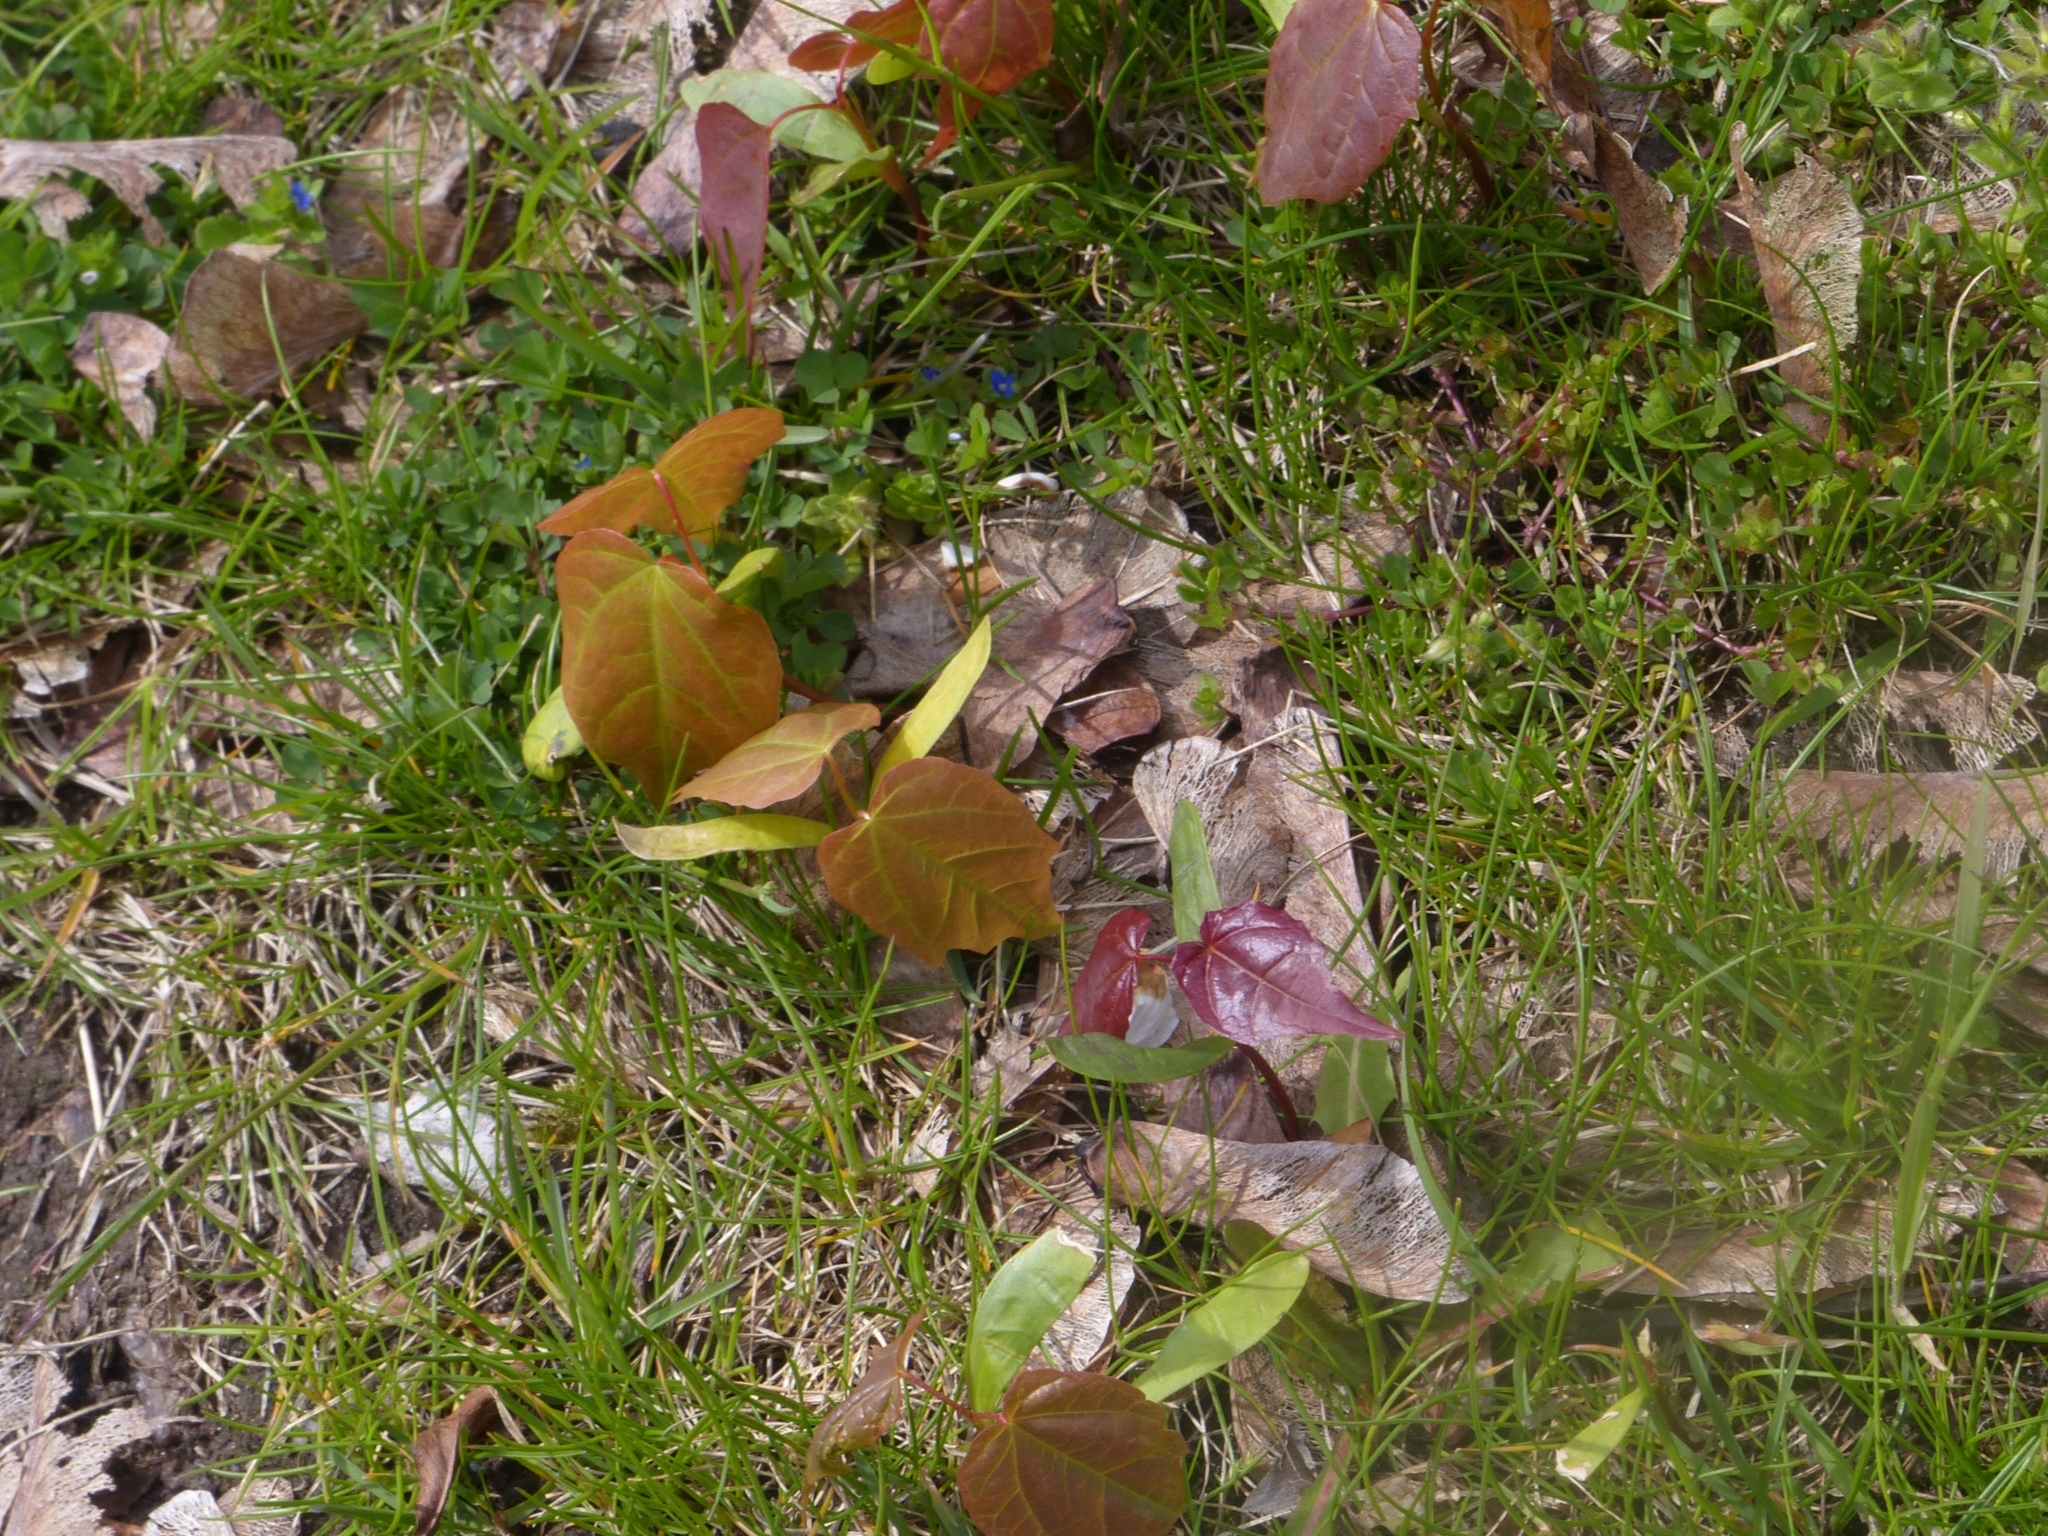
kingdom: Plantae
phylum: Tracheophyta
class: Magnoliopsida
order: Sapindales
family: Sapindaceae
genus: Acer
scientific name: Acer platanoides
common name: Norway maple
